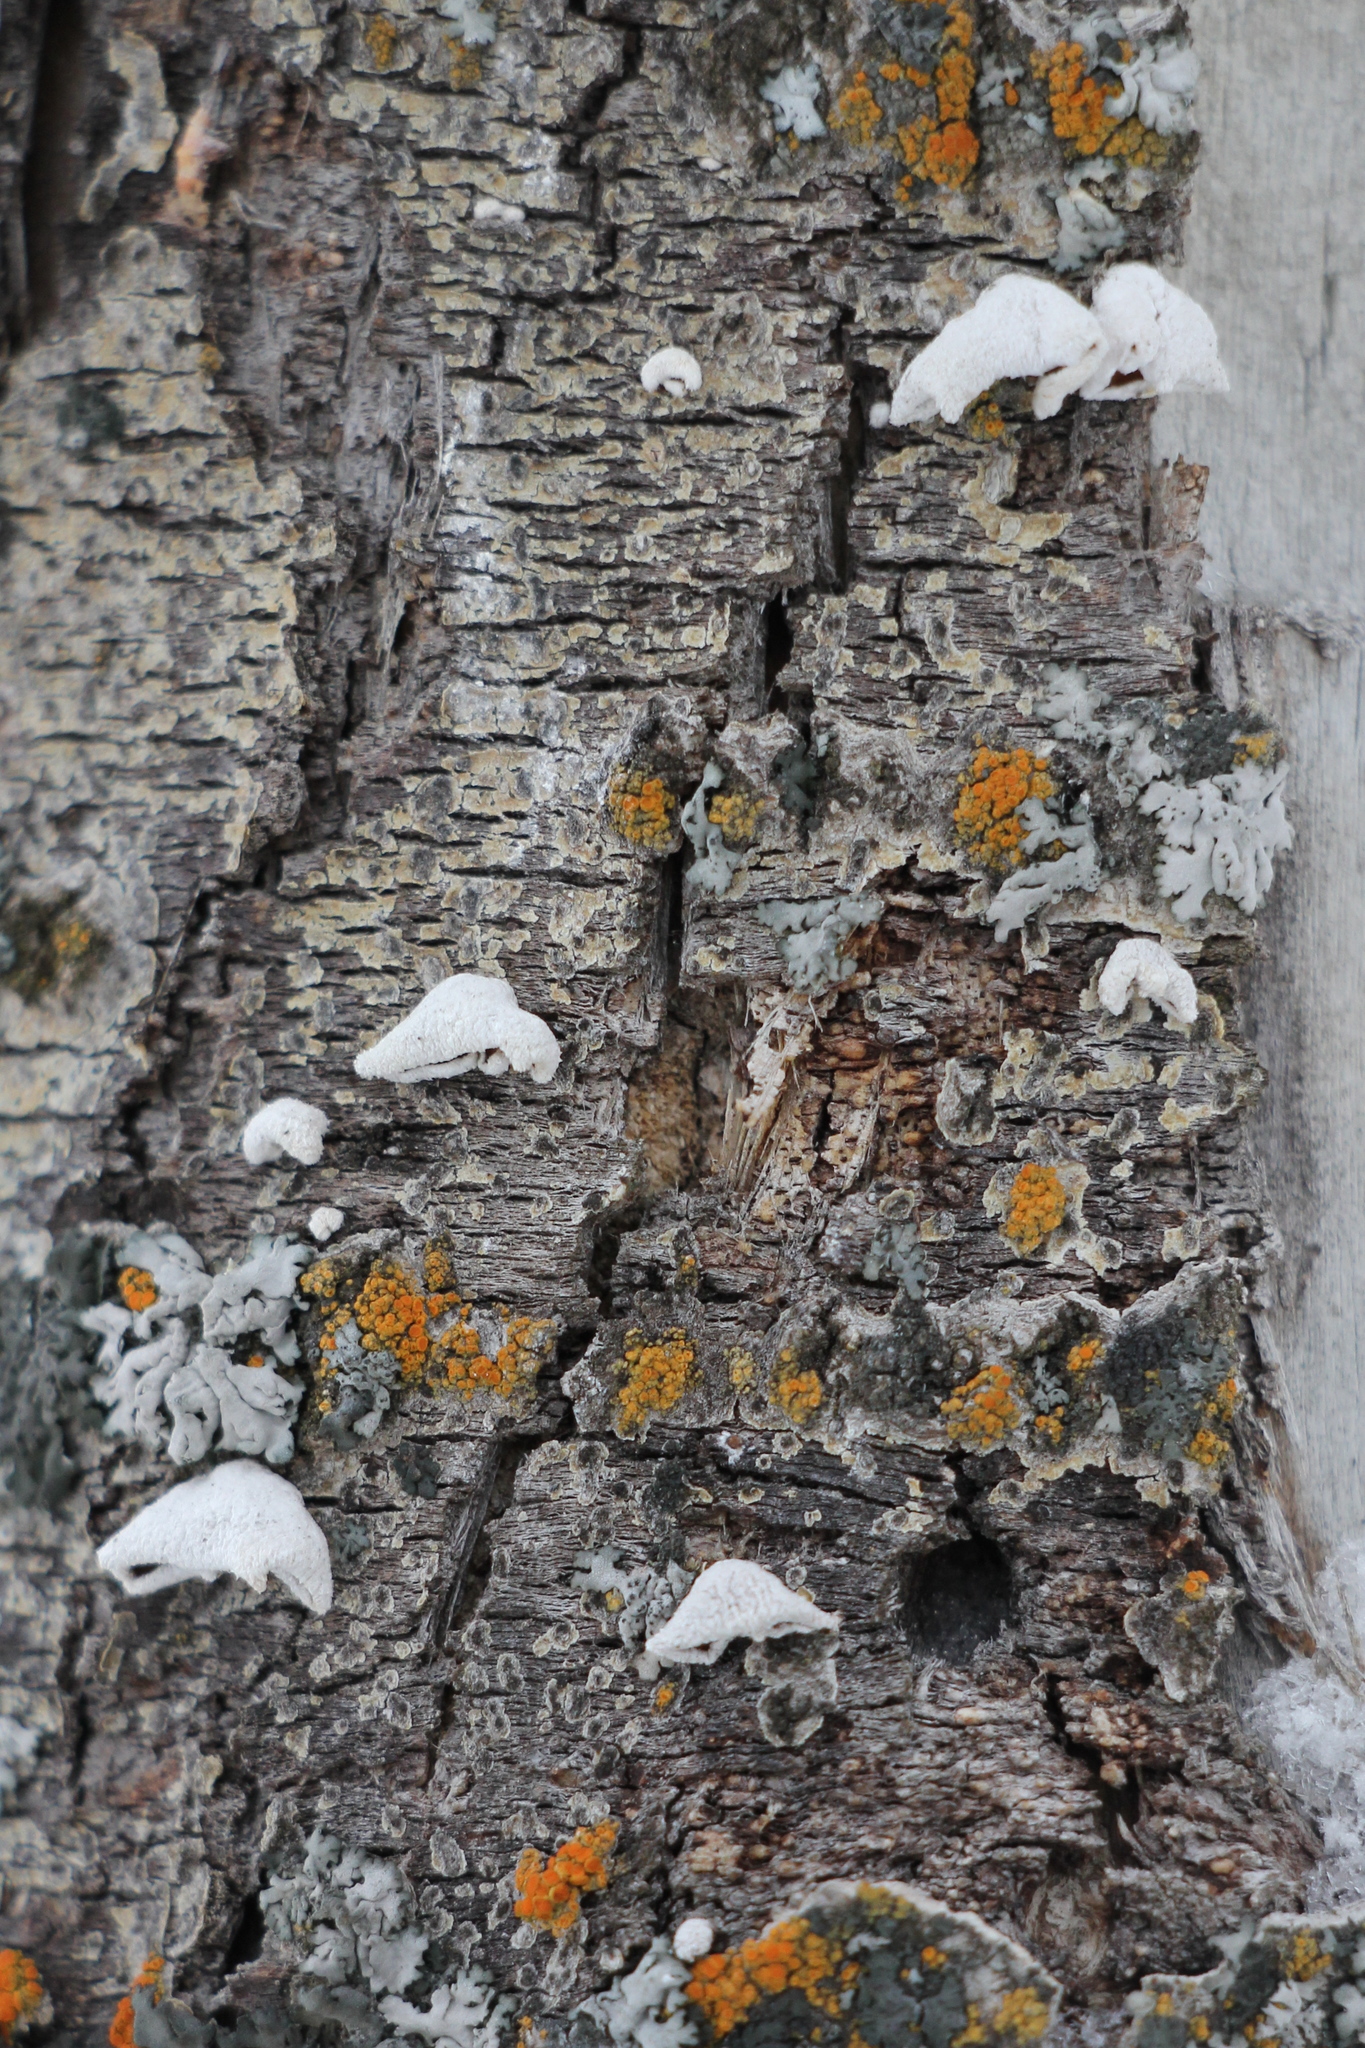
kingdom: Fungi
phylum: Basidiomycota
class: Agaricomycetes
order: Agaricales
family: Schizophyllaceae
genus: Schizophyllum
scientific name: Schizophyllum amplum
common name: Poplar bells
